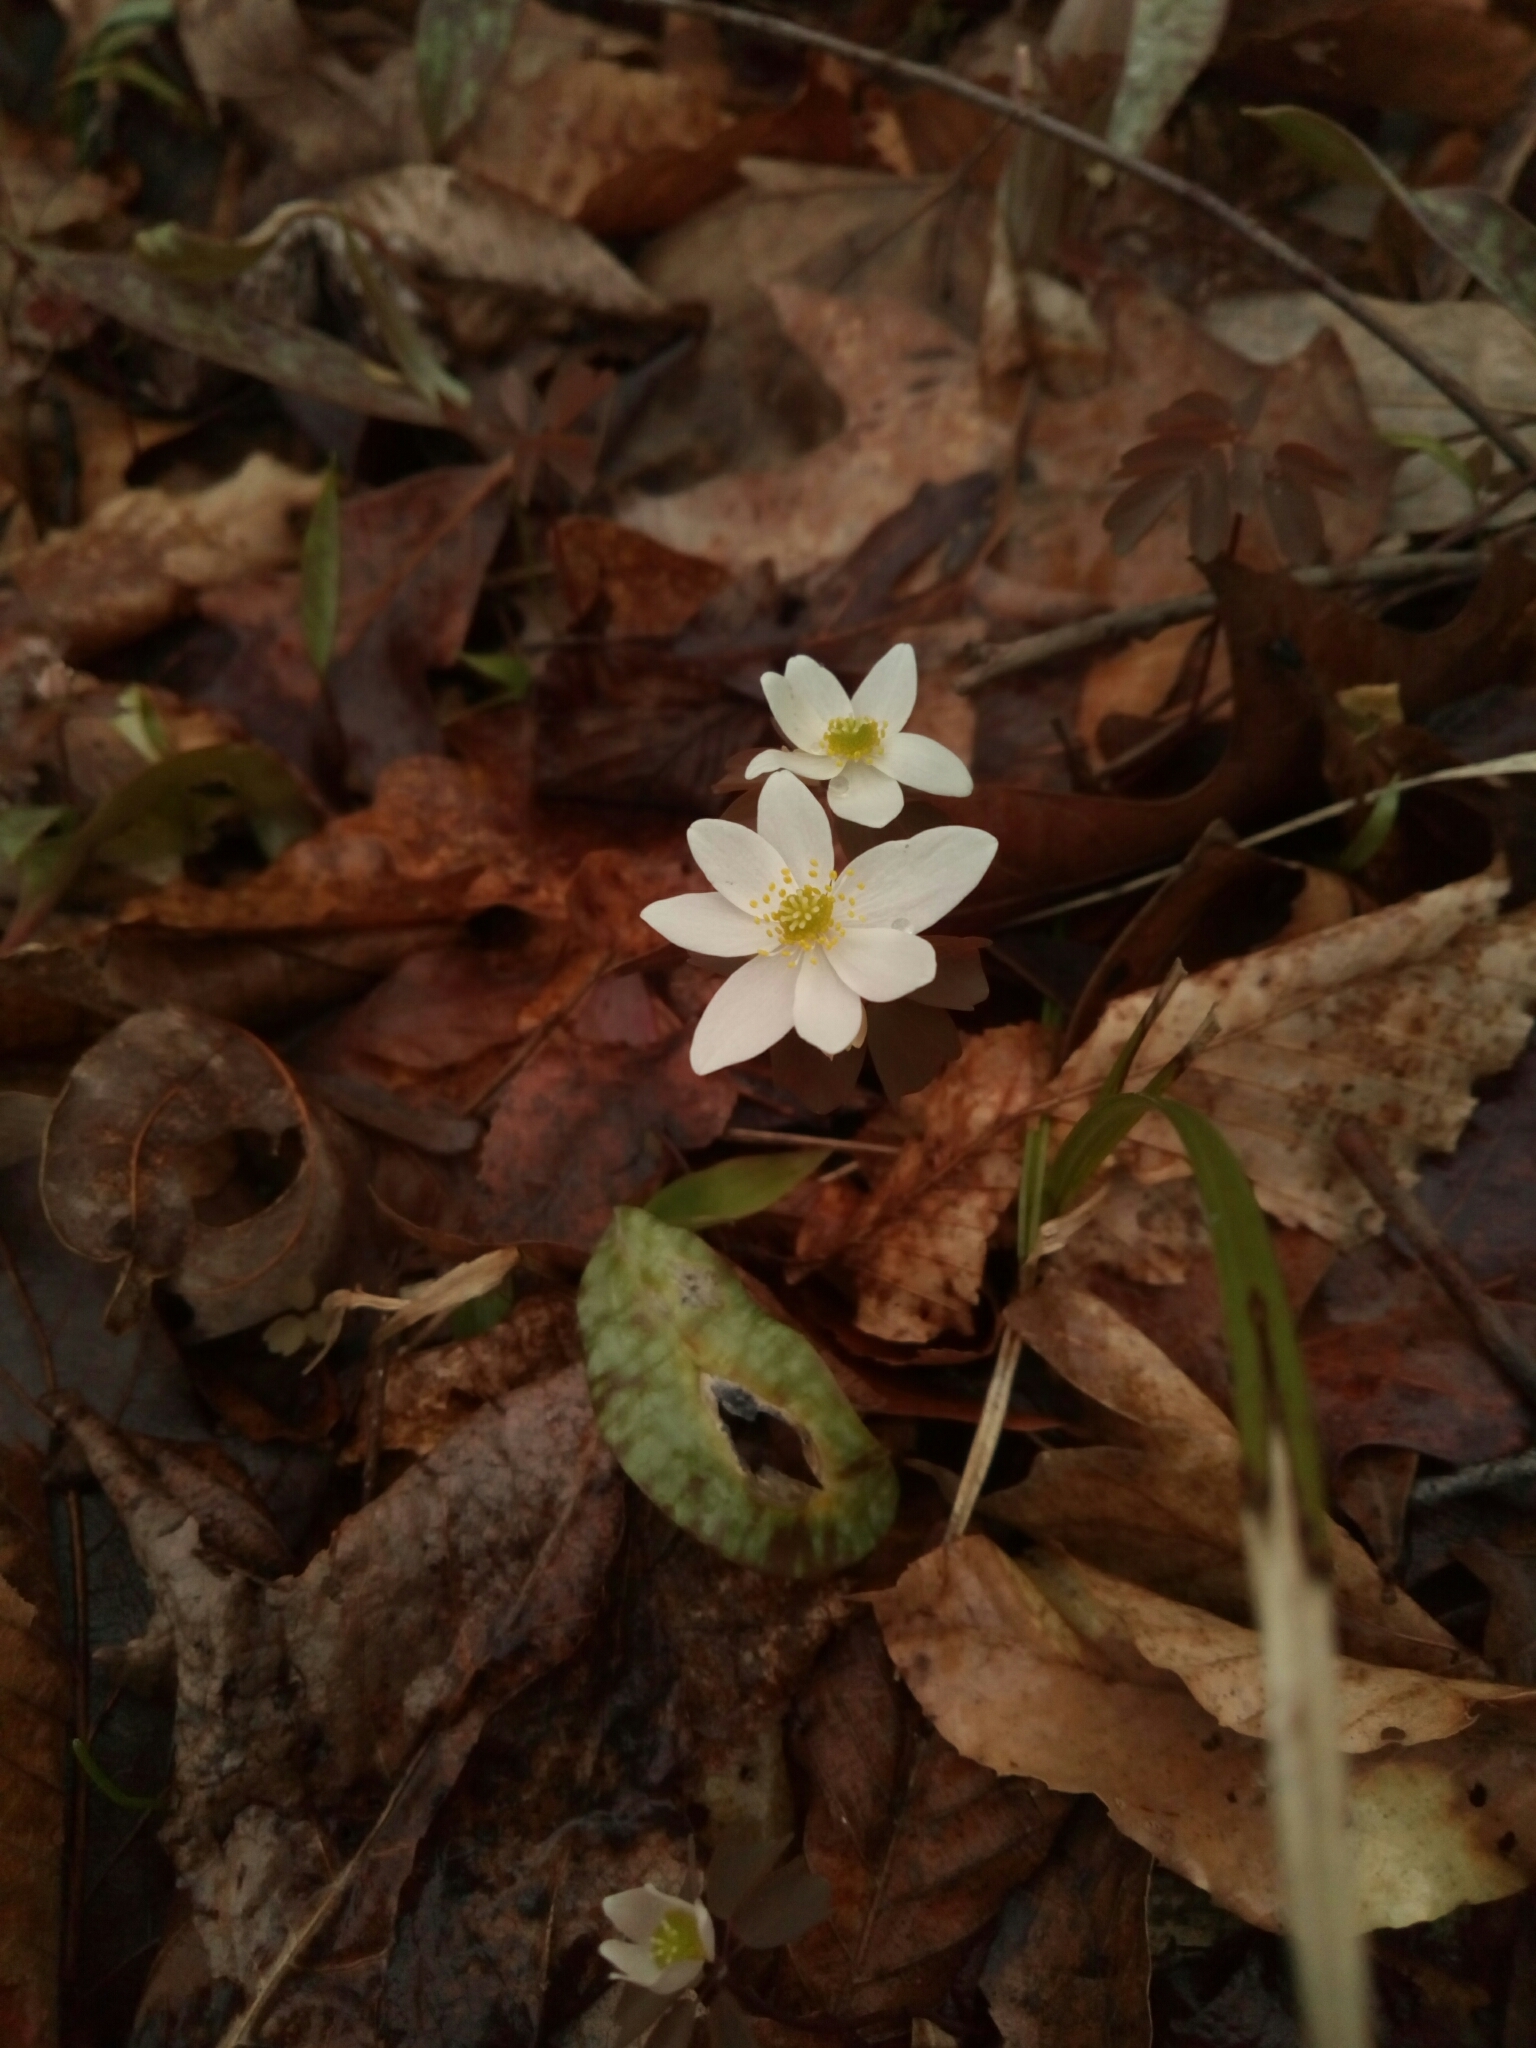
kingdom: Plantae
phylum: Tracheophyta
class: Magnoliopsida
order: Ranunculales
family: Ranunculaceae
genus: Thalictrum
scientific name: Thalictrum thalictroides
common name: Rue-anemone
